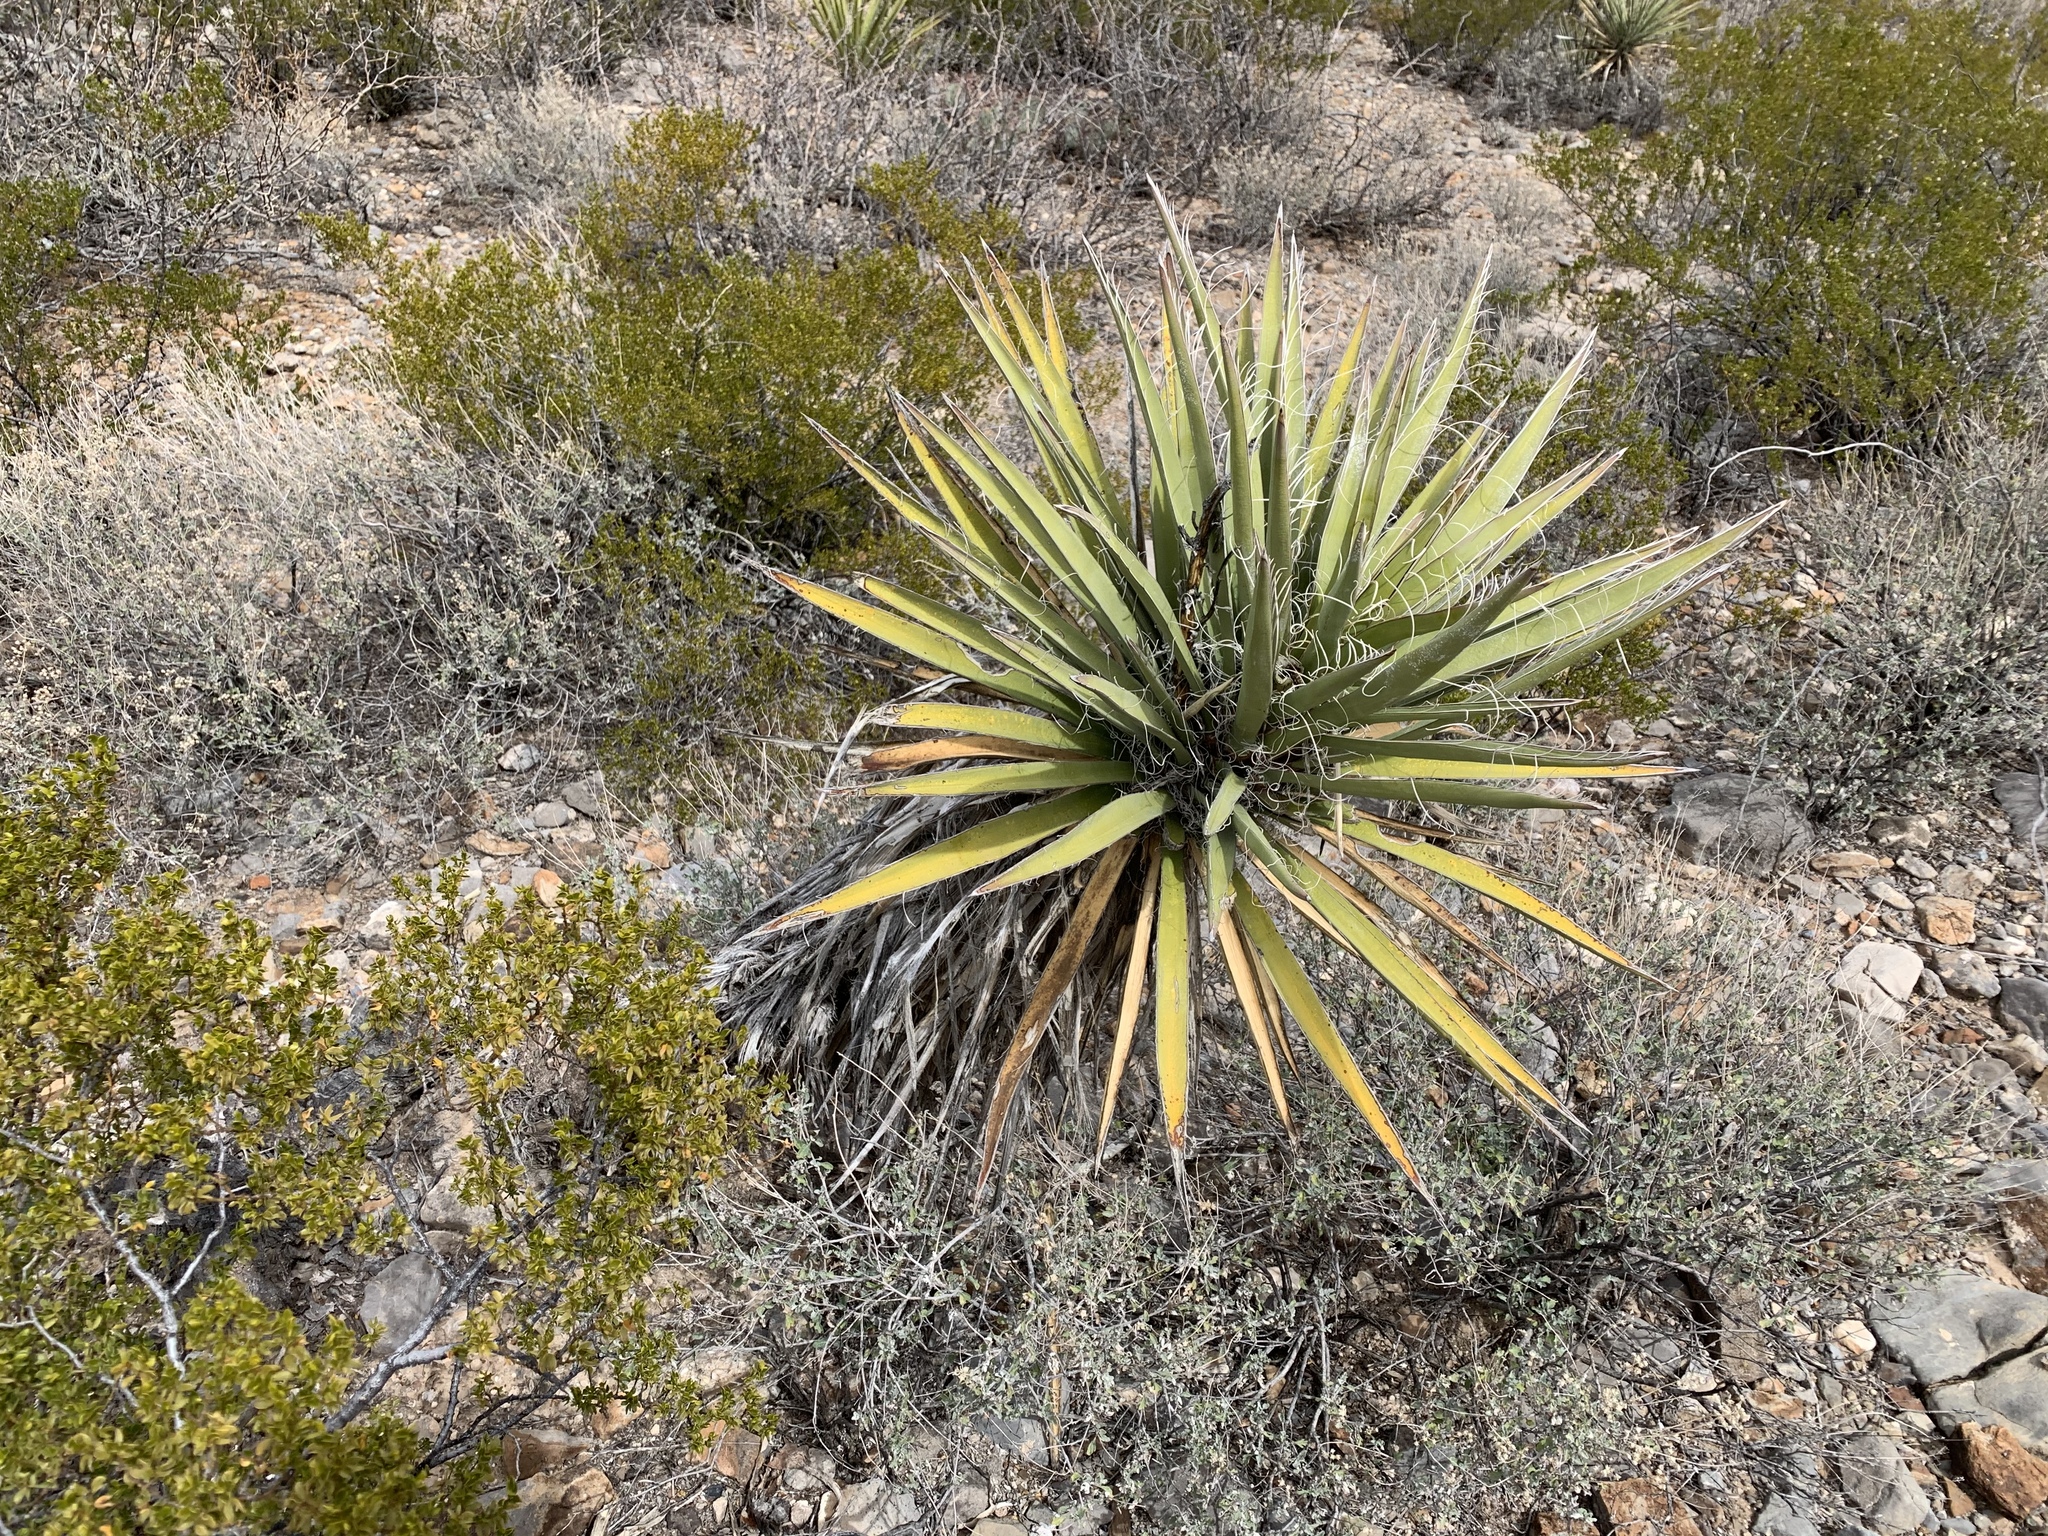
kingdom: Plantae
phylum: Tracheophyta
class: Liliopsida
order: Asparagales
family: Asparagaceae
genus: Yucca
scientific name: Yucca baccata
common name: Banana yucca
